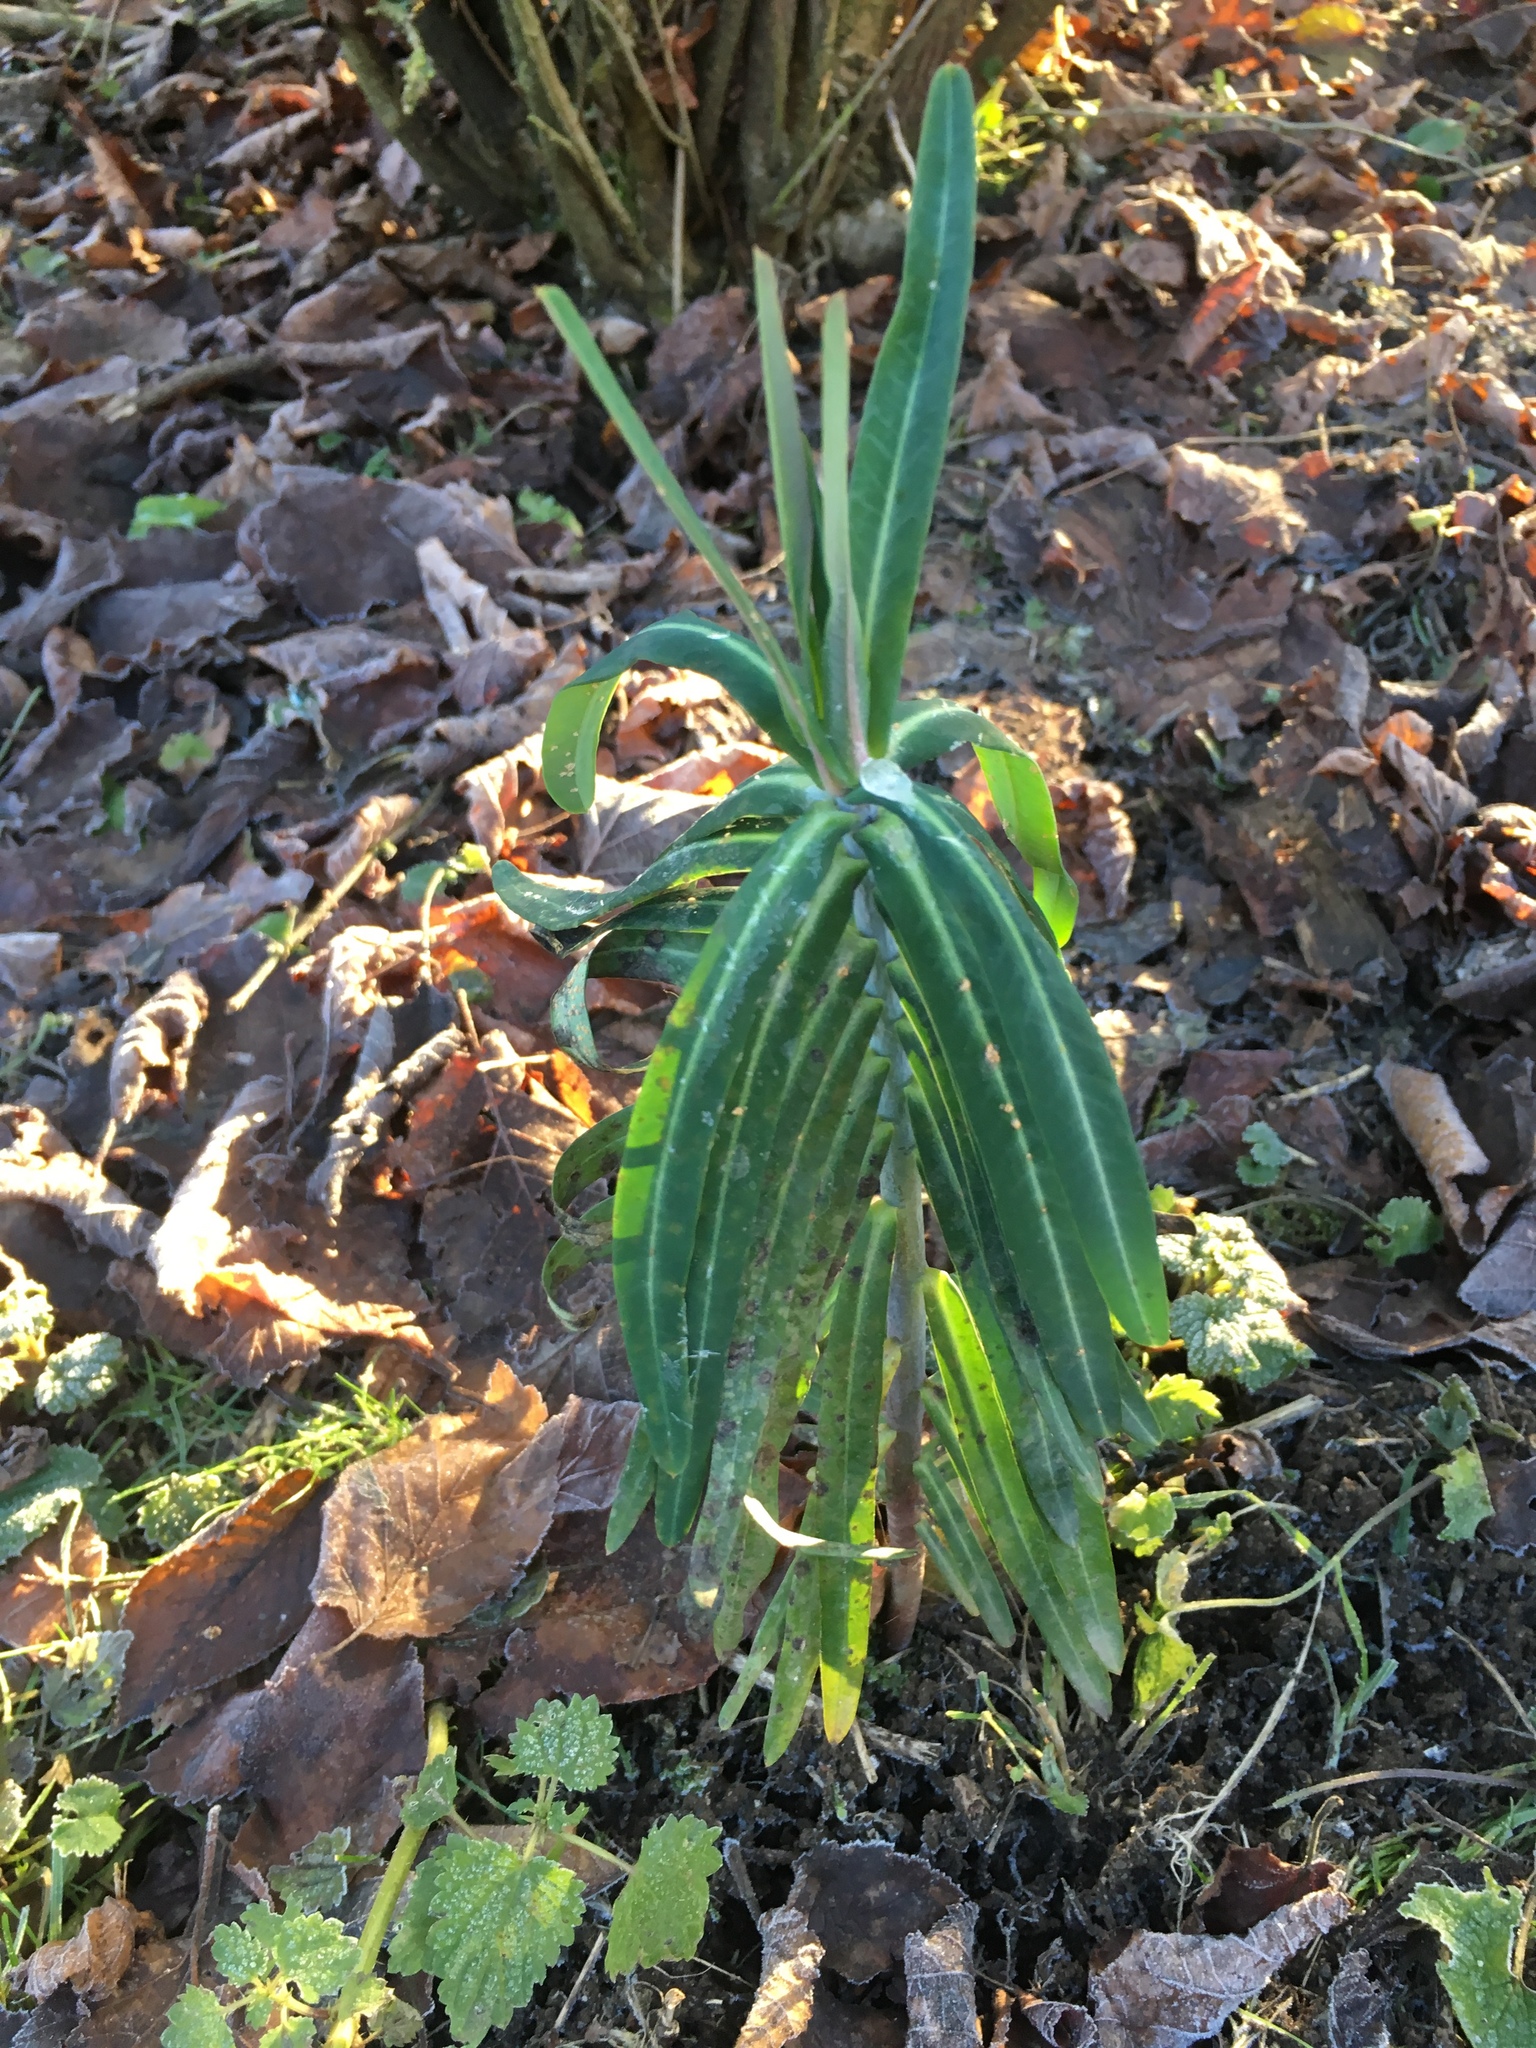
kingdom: Plantae
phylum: Tracheophyta
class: Magnoliopsida
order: Malpighiales
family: Euphorbiaceae
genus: Euphorbia
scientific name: Euphorbia lathyris
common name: Caper spurge
